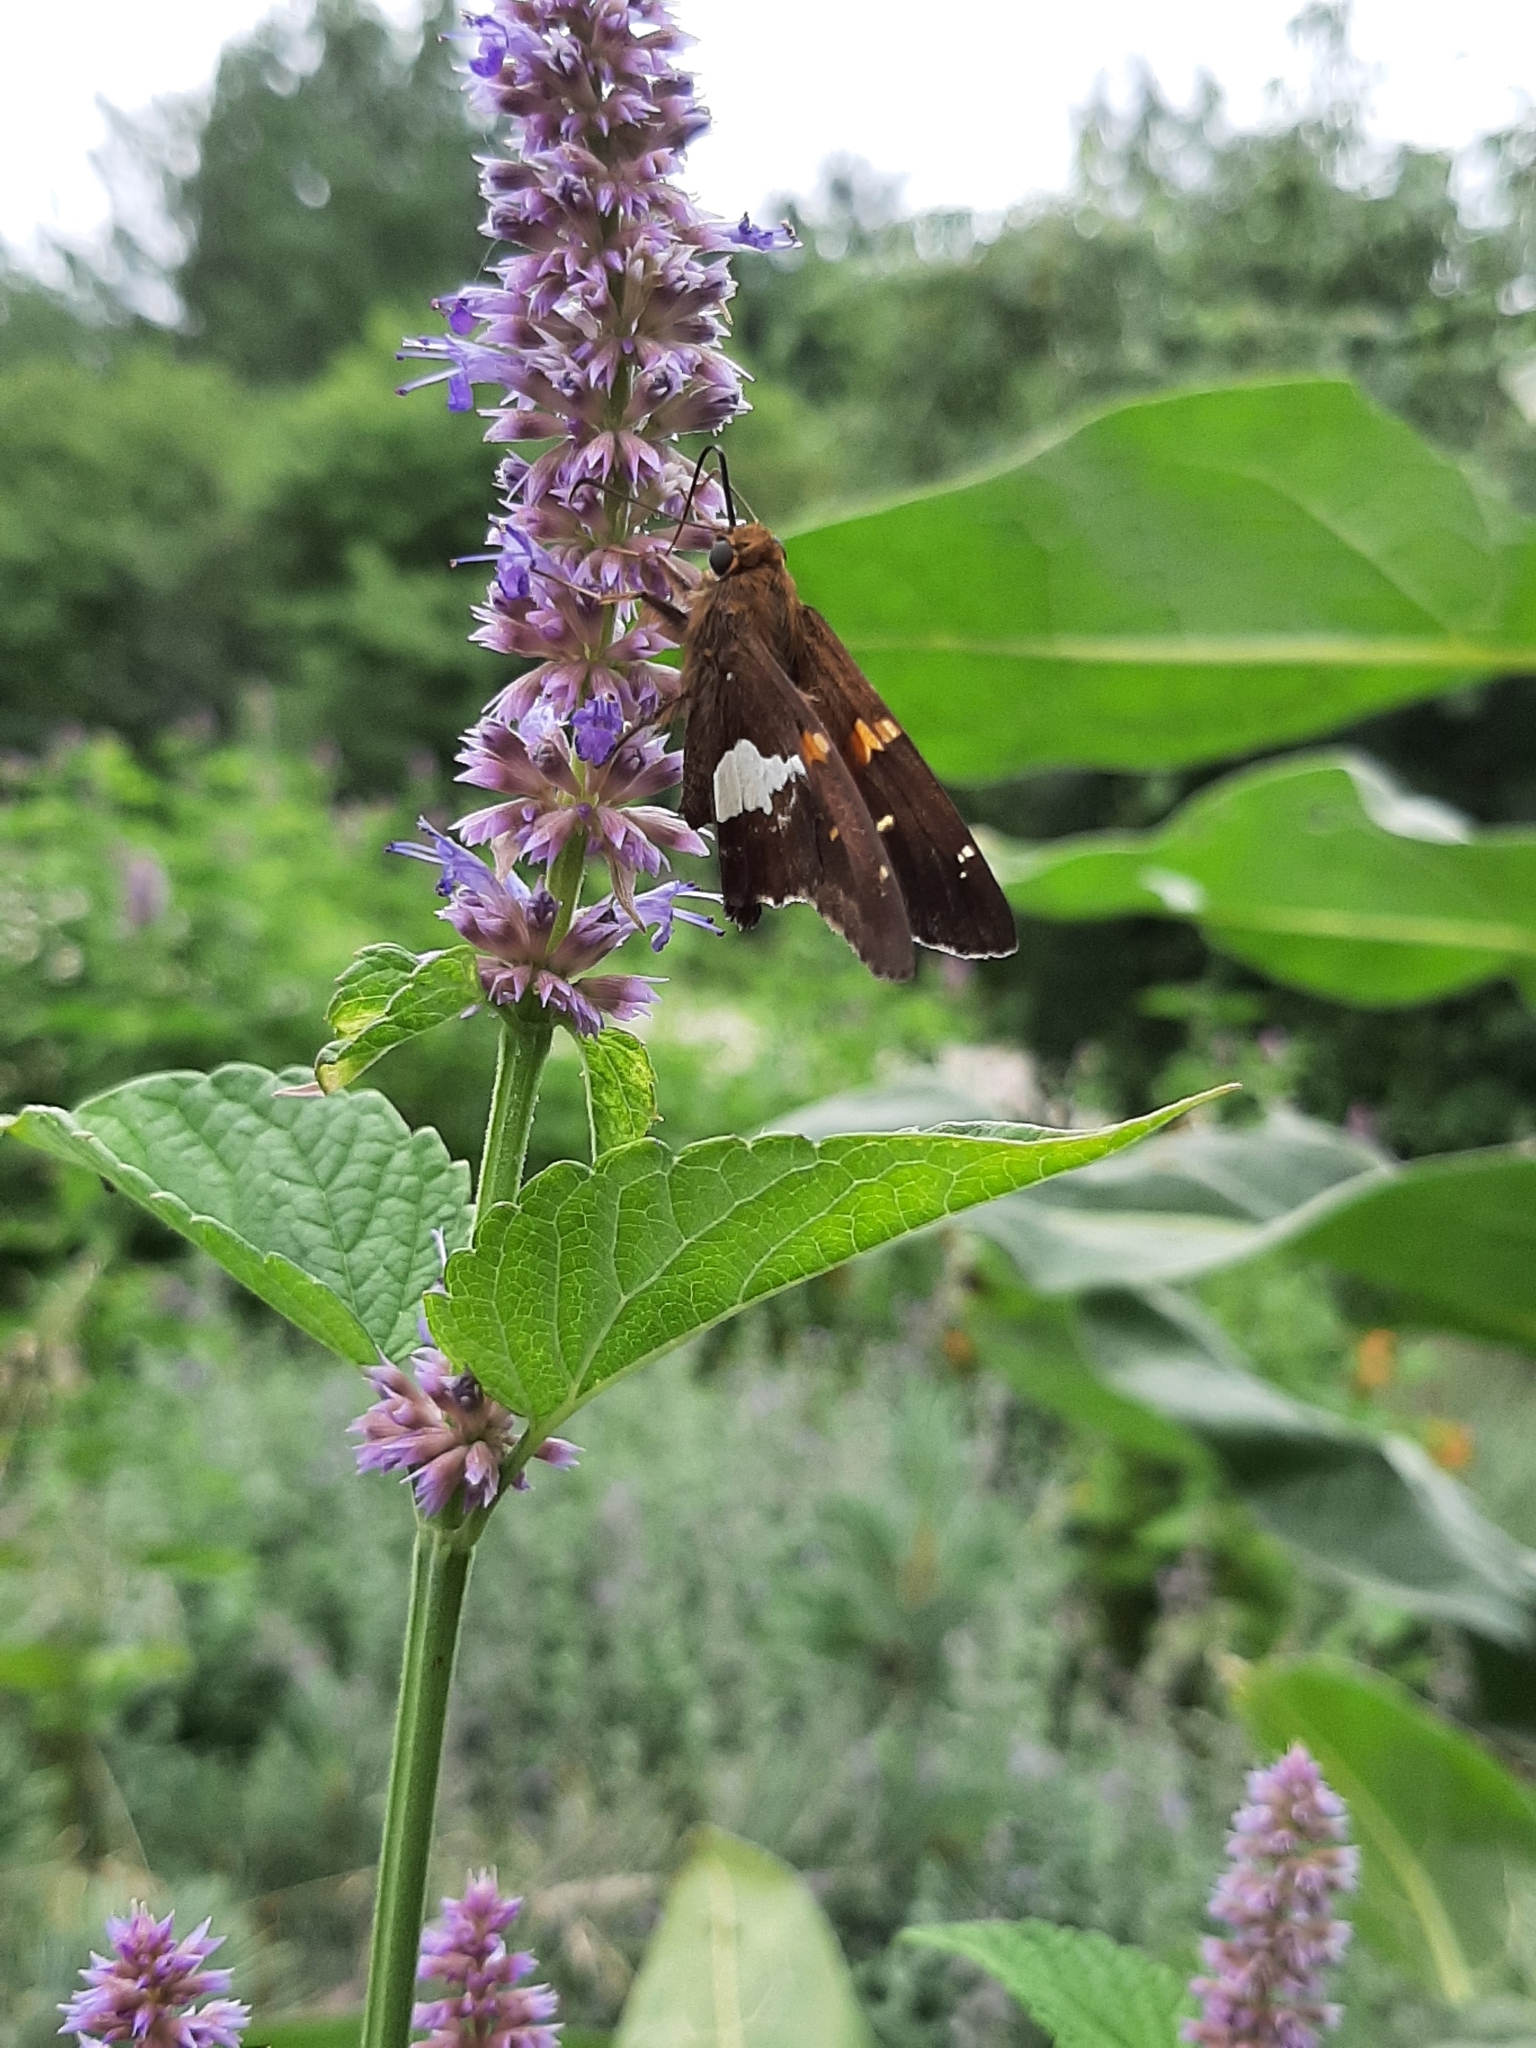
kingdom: Animalia
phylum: Arthropoda
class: Insecta
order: Lepidoptera
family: Hesperiidae
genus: Epargyreus
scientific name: Epargyreus clarus
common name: Silver-spotted skipper
